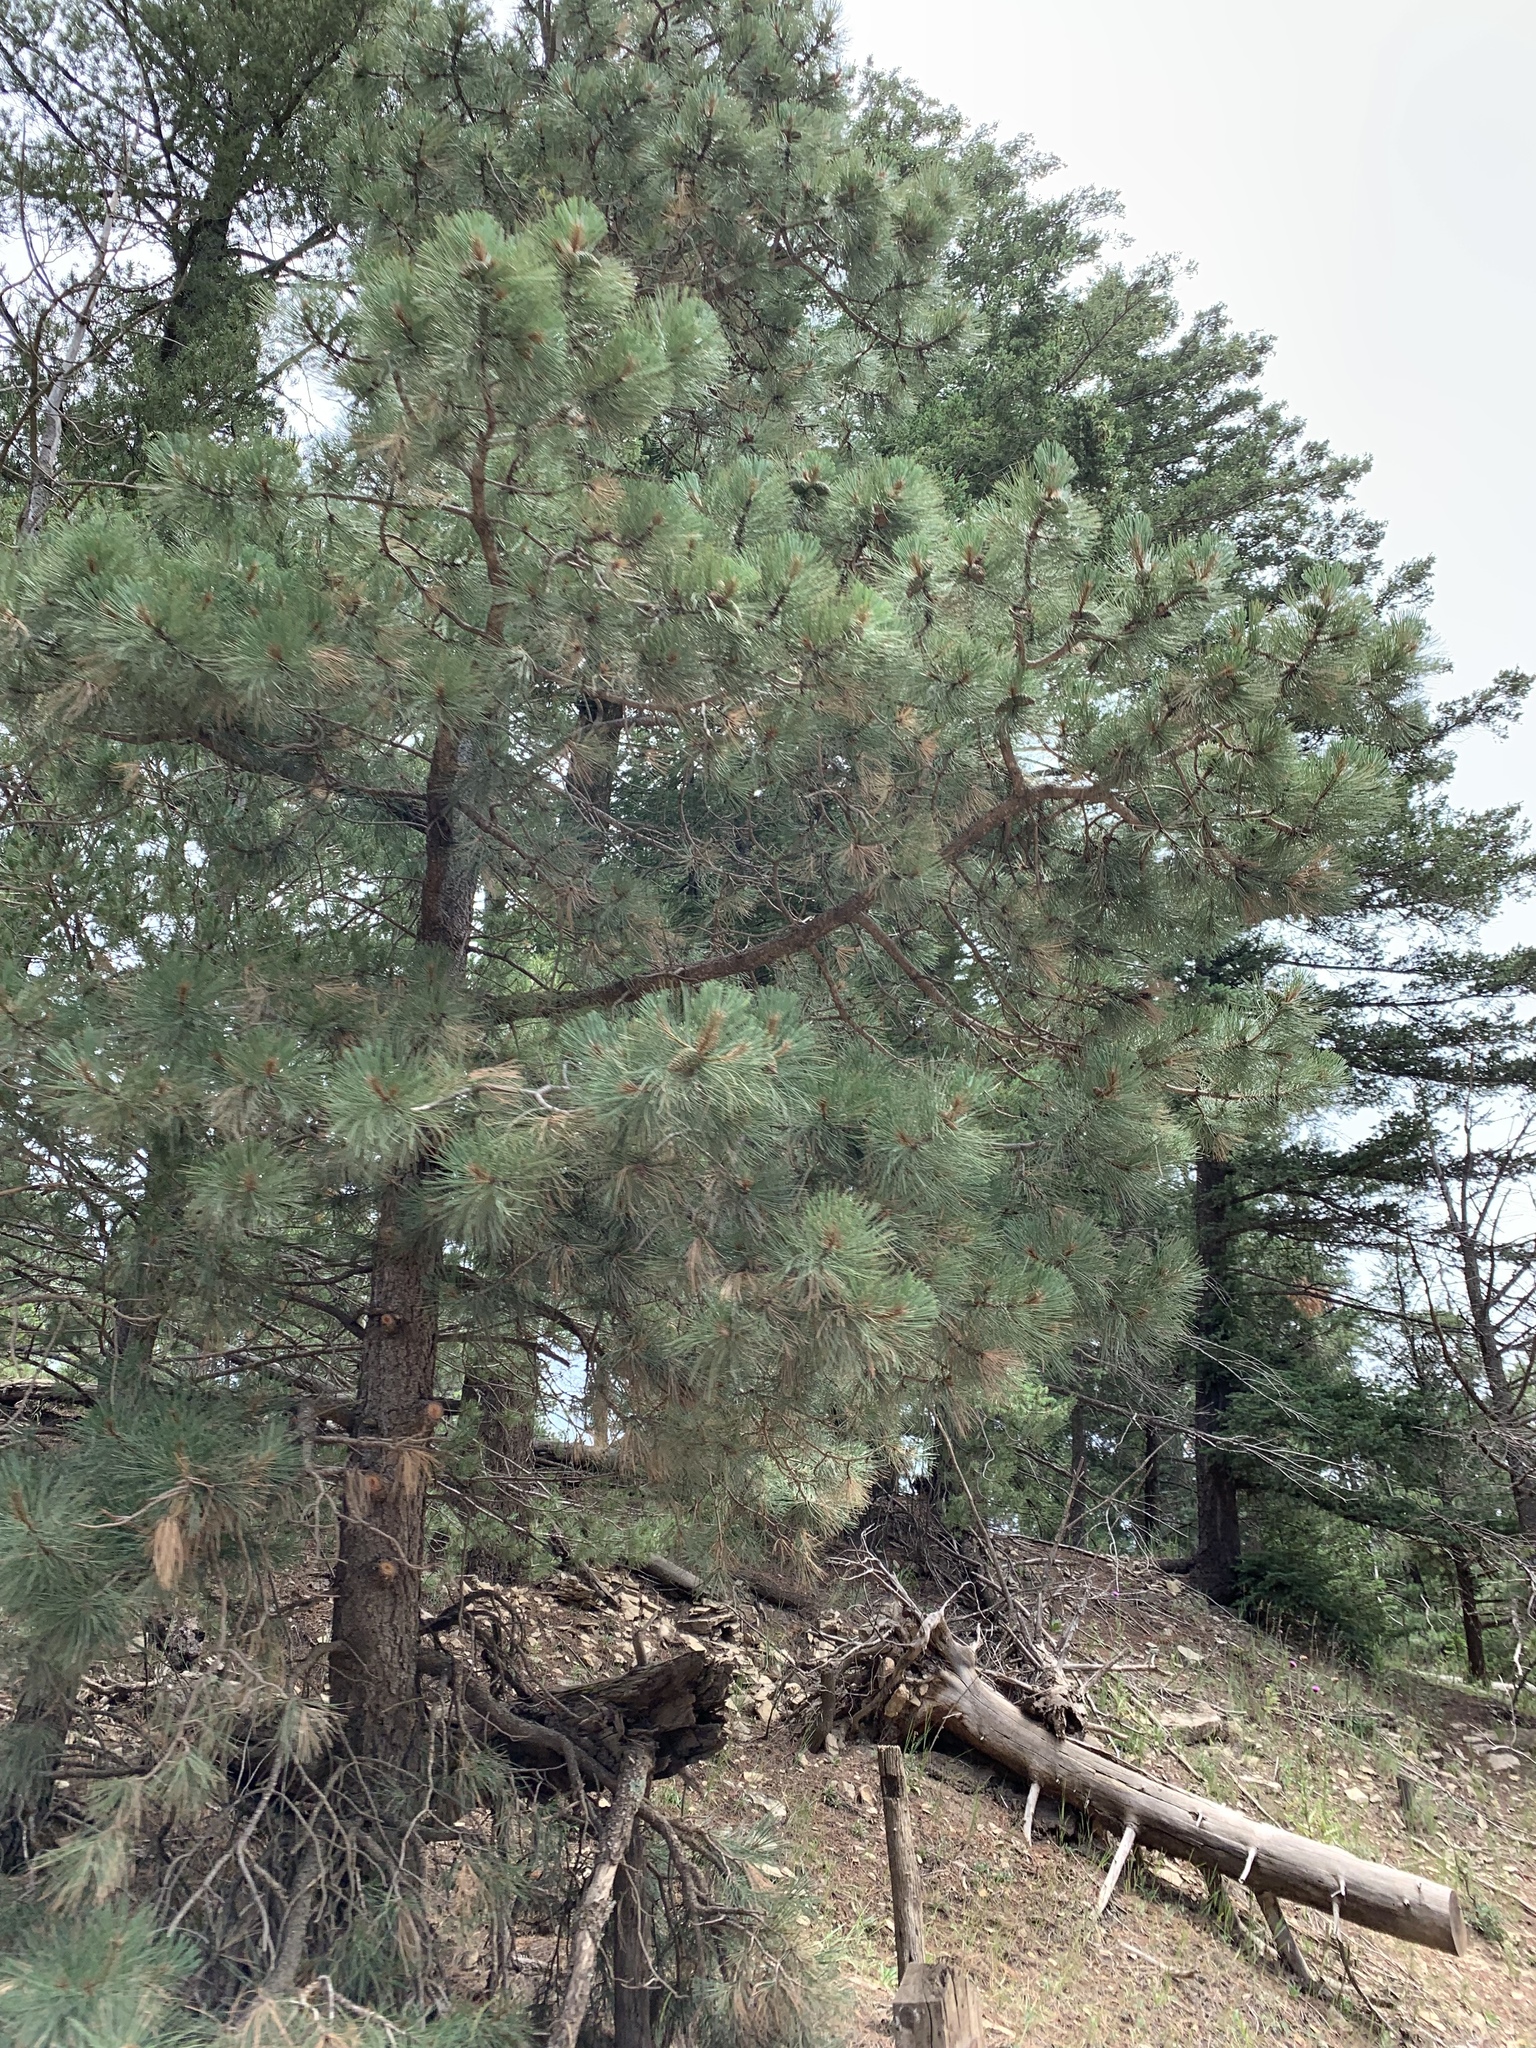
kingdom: Plantae
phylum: Tracheophyta
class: Pinopsida
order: Pinales
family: Pinaceae
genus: Pinus
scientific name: Pinus ponderosa
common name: Western yellow-pine
